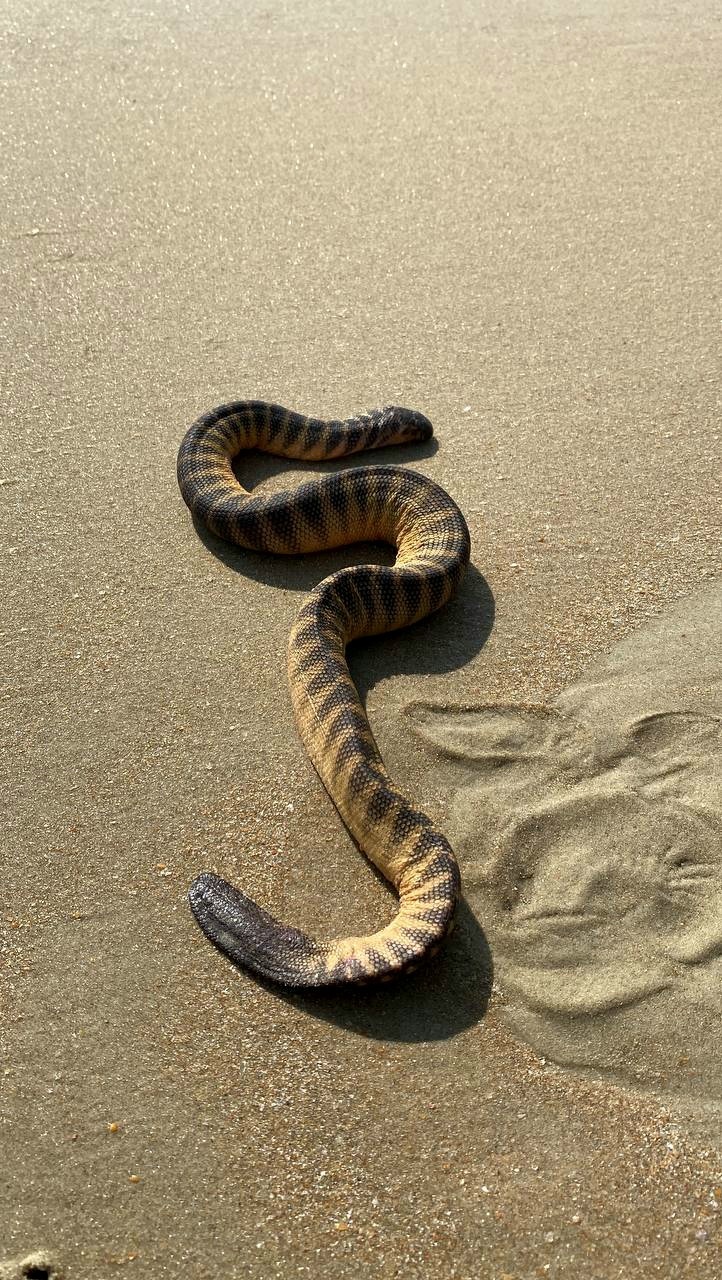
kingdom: Animalia
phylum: Chordata
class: Squamata
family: Elapidae
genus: Hydrophis
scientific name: Hydrophis curtus
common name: Shaw's sea snake
